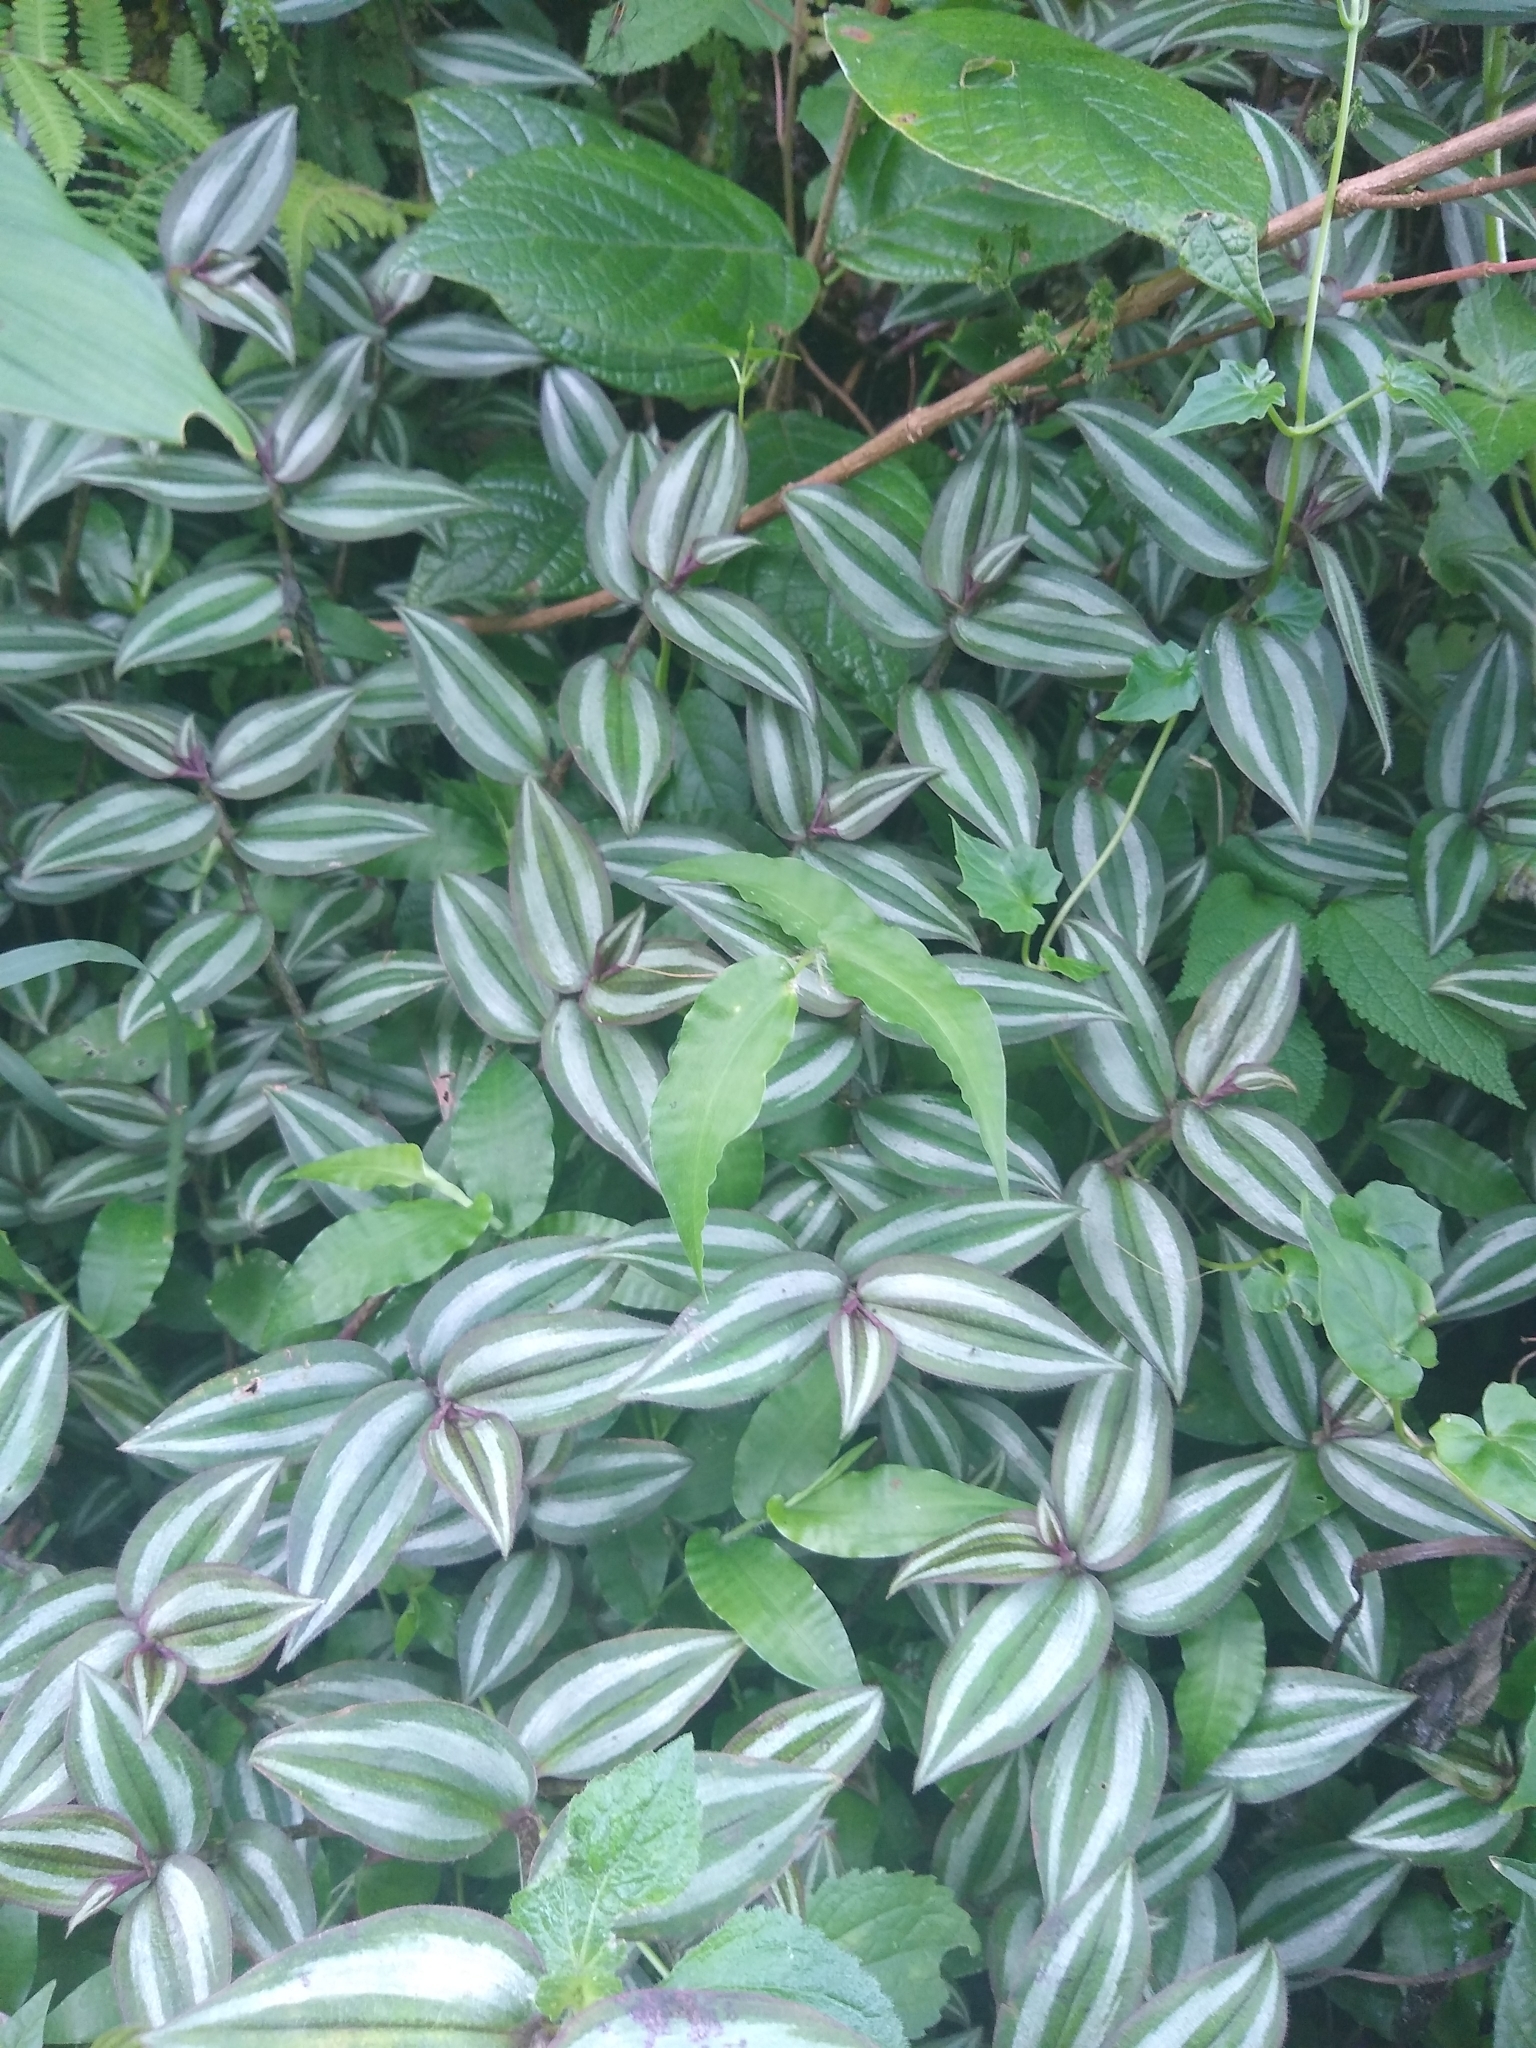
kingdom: Plantae
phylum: Tracheophyta
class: Liliopsida
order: Commelinales
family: Commelinaceae
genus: Tradescantia
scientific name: Tradescantia zebrina
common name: Inchplant
